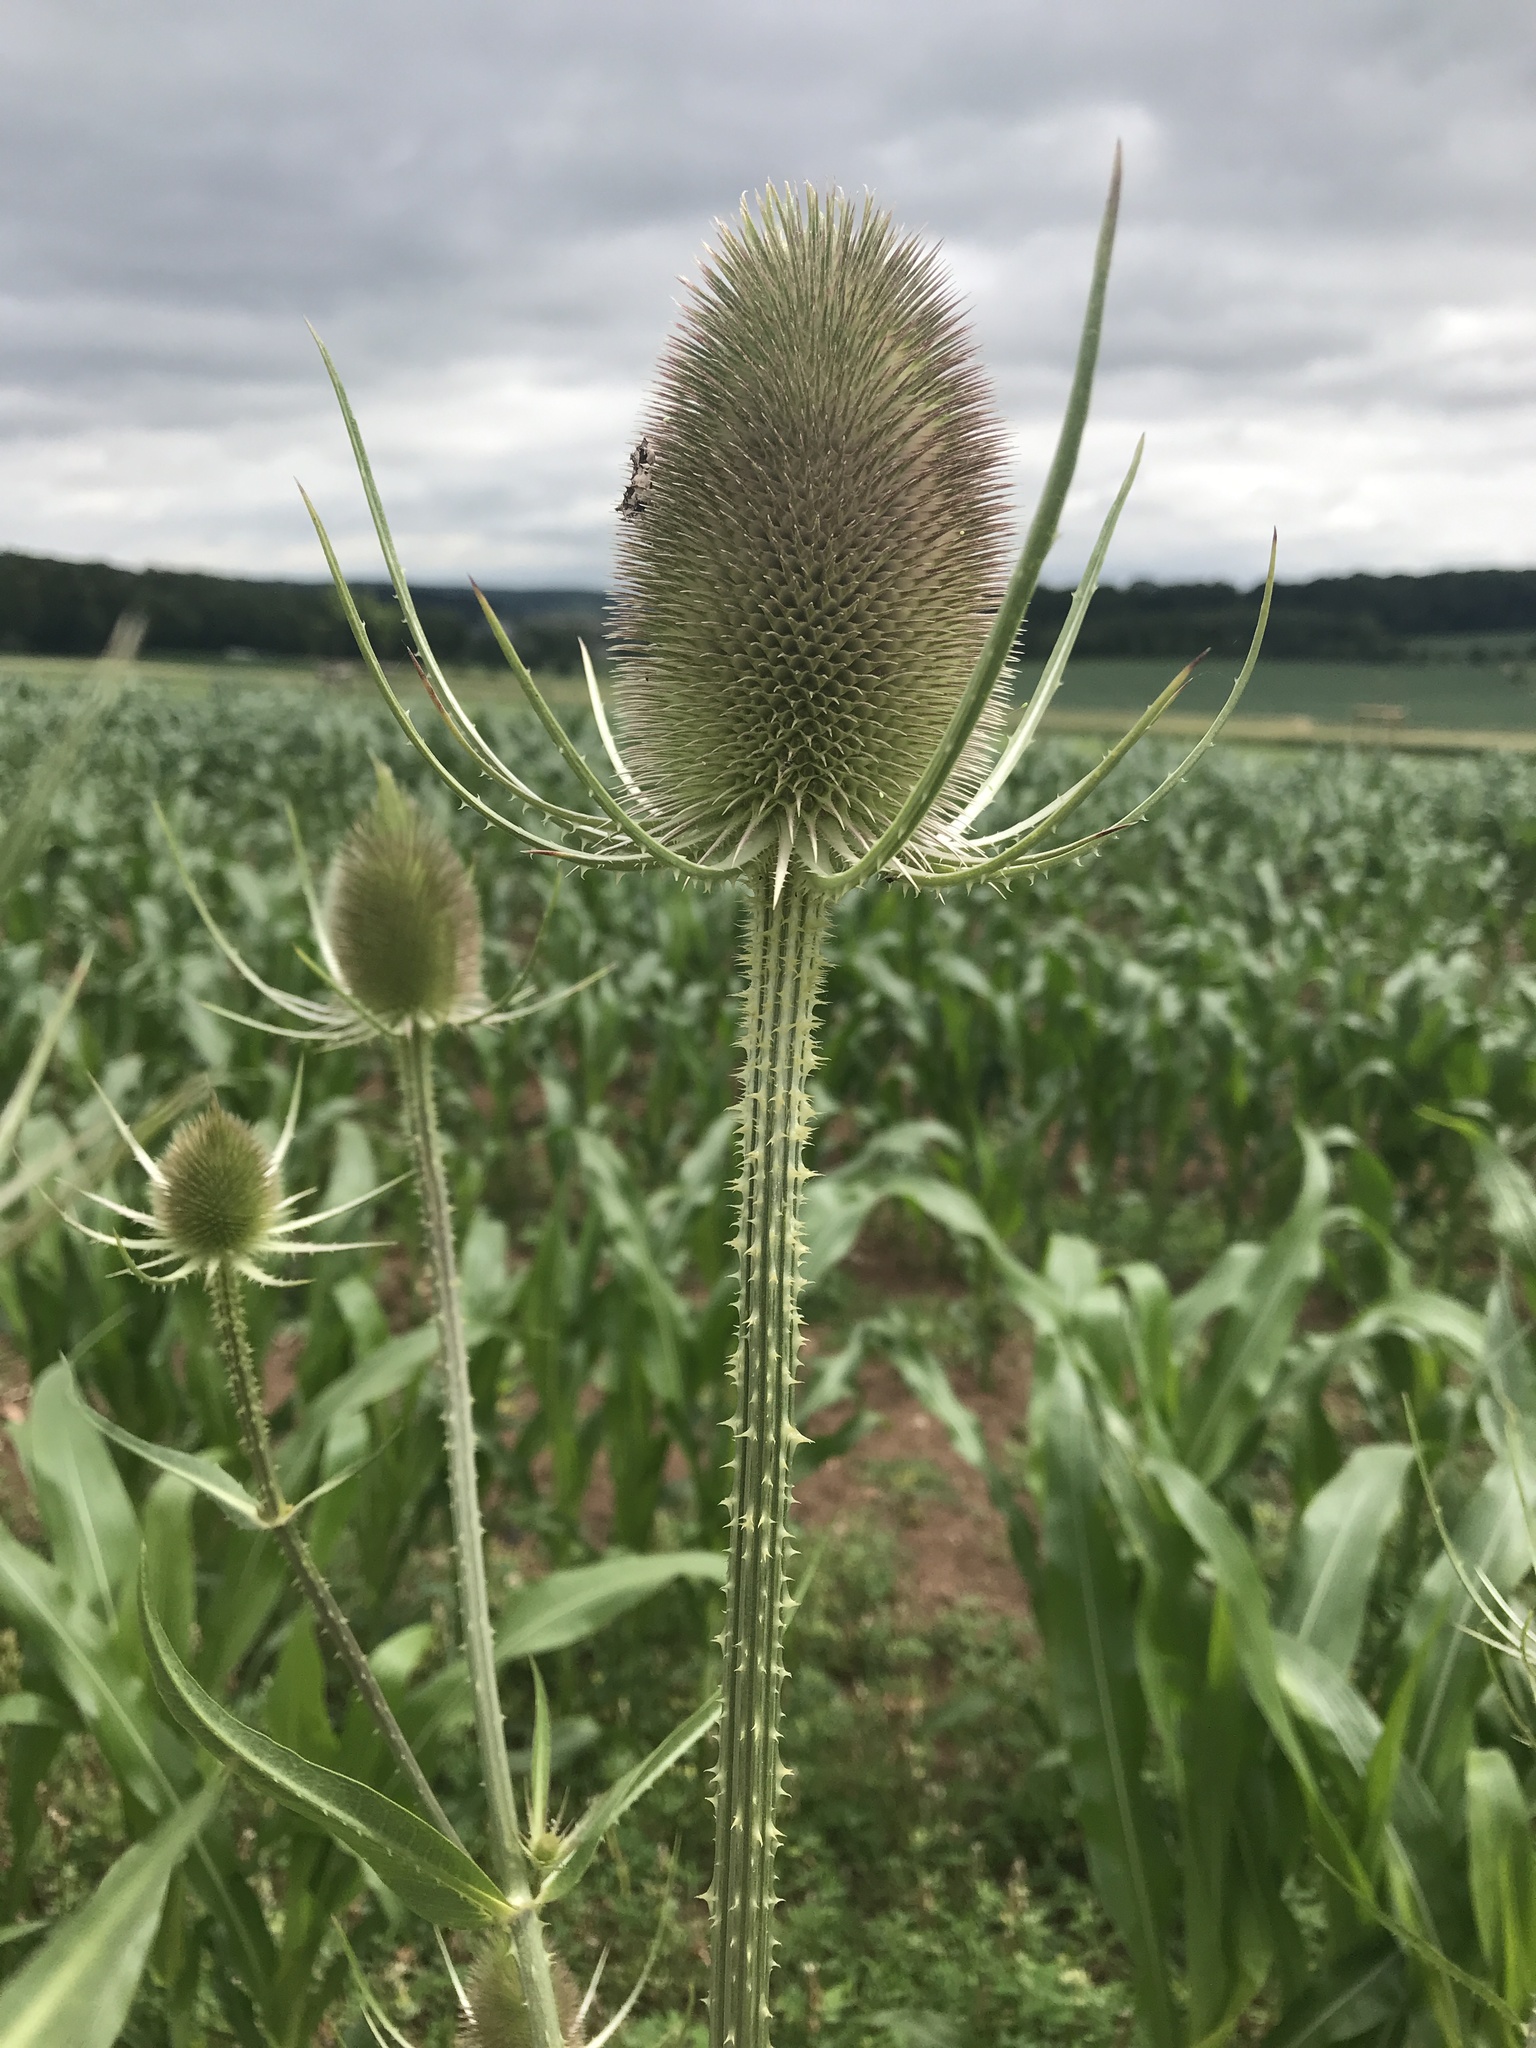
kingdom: Plantae
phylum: Tracheophyta
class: Magnoliopsida
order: Dipsacales
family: Caprifoliaceae
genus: Dipsacus
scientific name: Dipsacus fullonum
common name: Teasel
